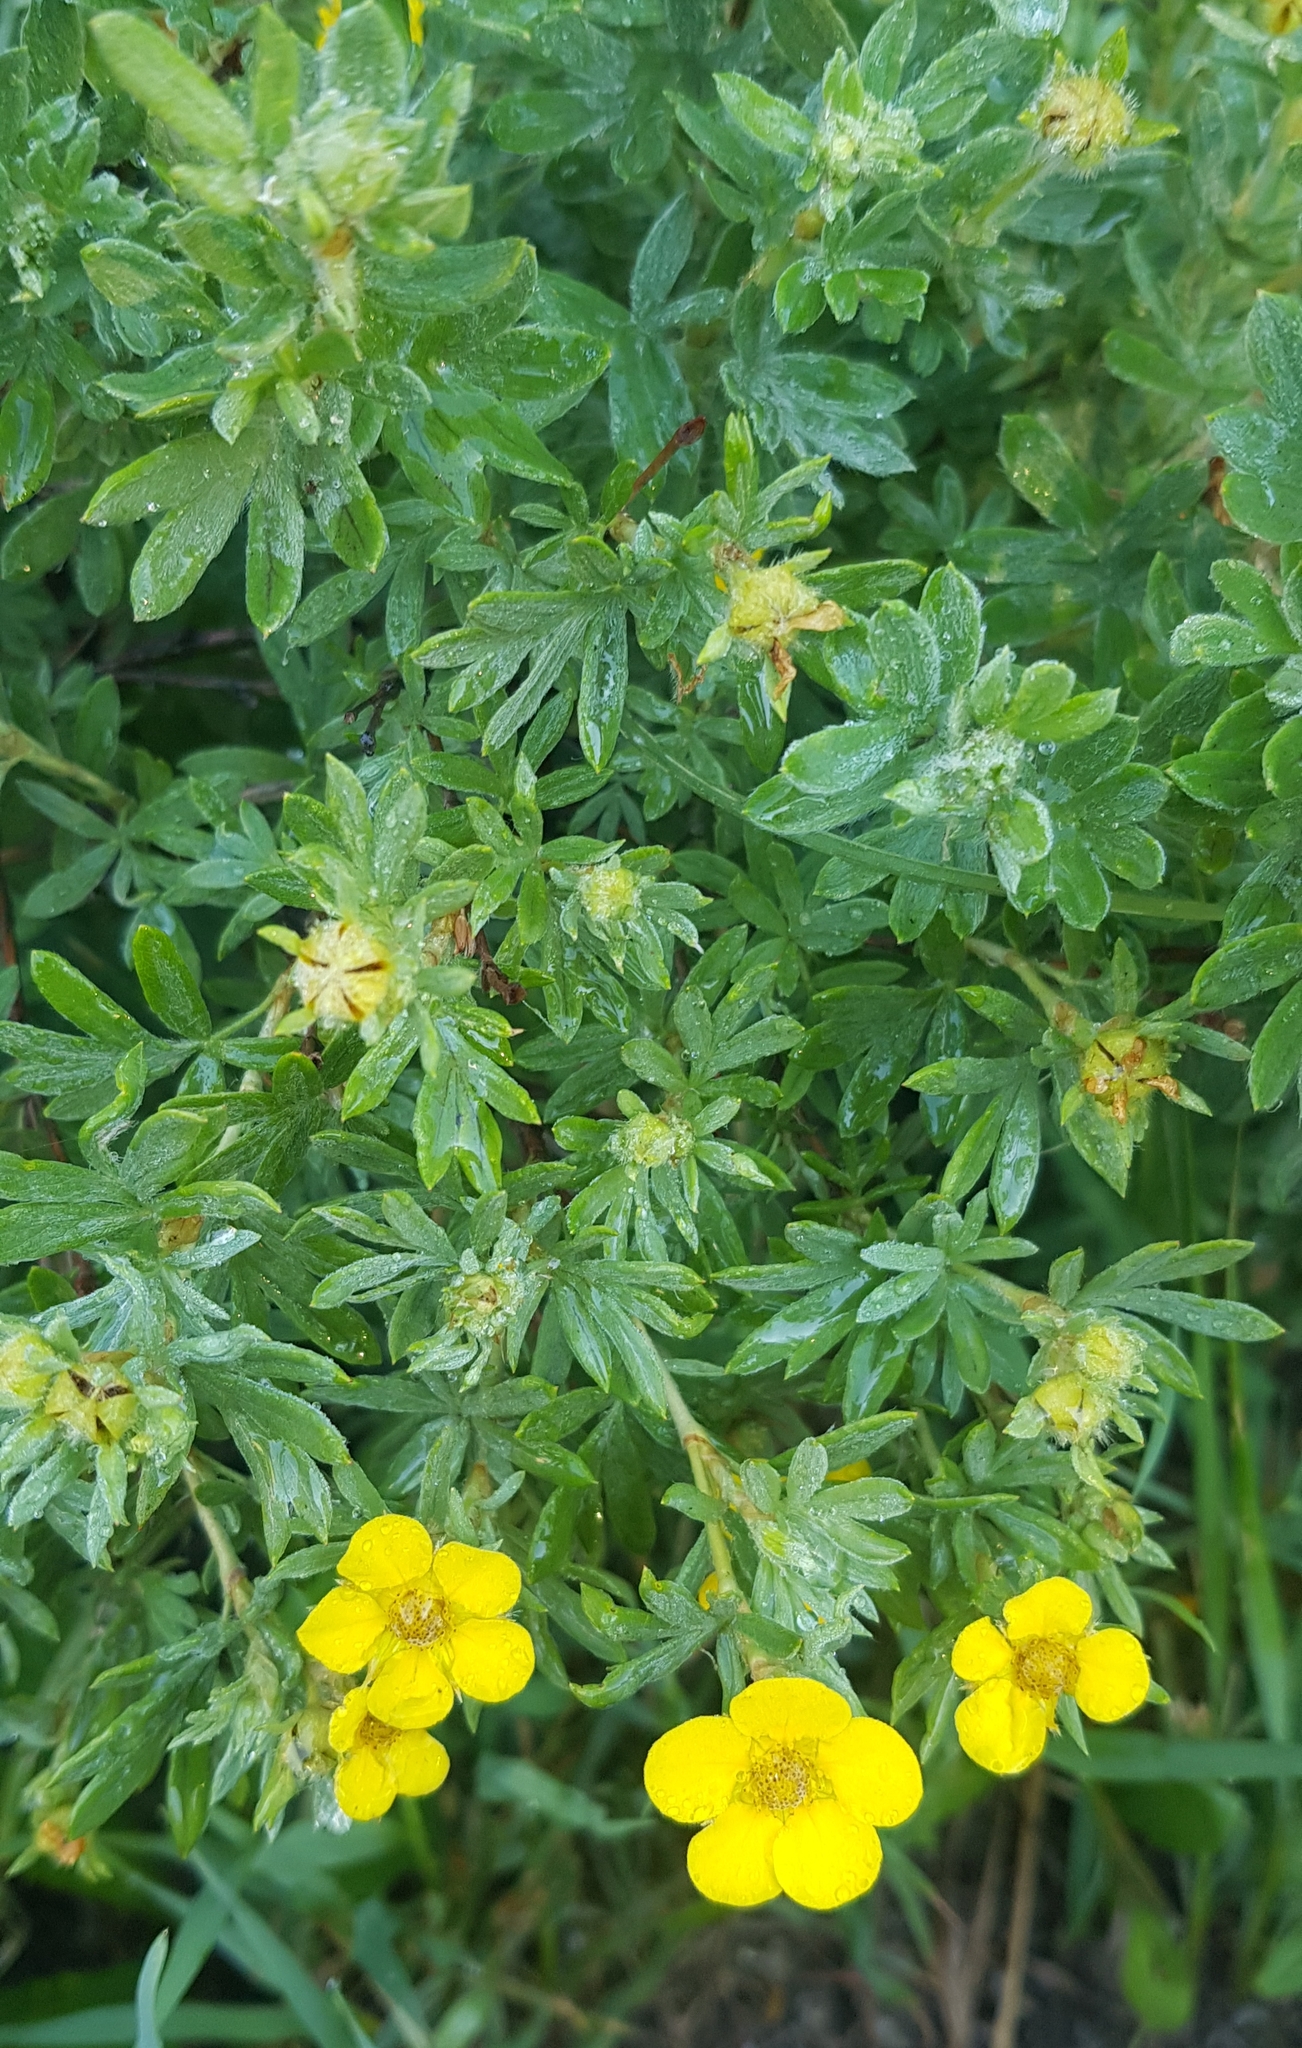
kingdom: Plantae
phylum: Tracheophyta
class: Magnoliopsida
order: Rosales
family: Rosaceae
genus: Dasiphora
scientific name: Dasiphora fruticosa
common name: Shrubby cinquefoil
